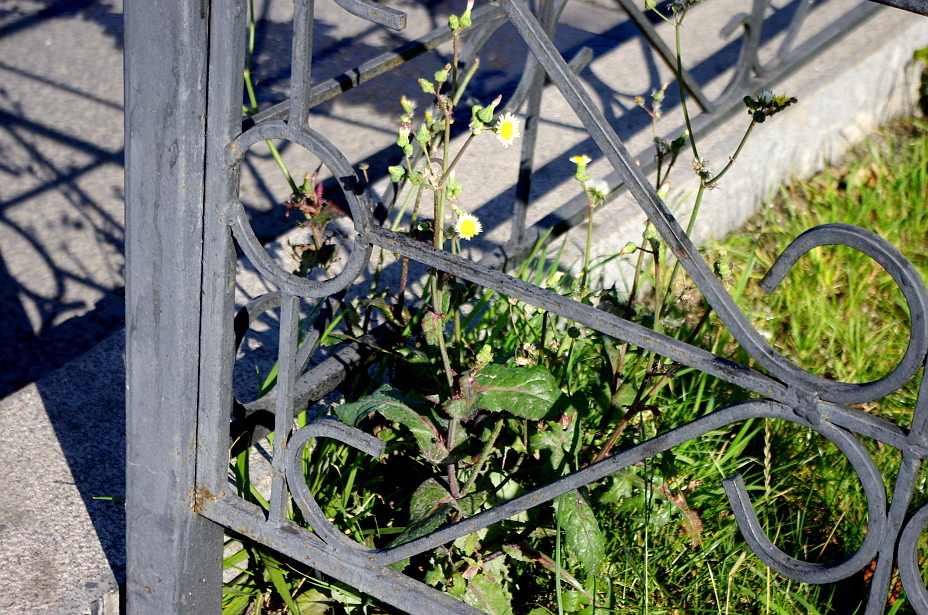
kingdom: Plantae
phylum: Tracheophyta
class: Magnoliopsida
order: Asterales
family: Asteraceae
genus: Sonchus
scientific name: Sonchus oleraceus
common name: Common sowthistle
